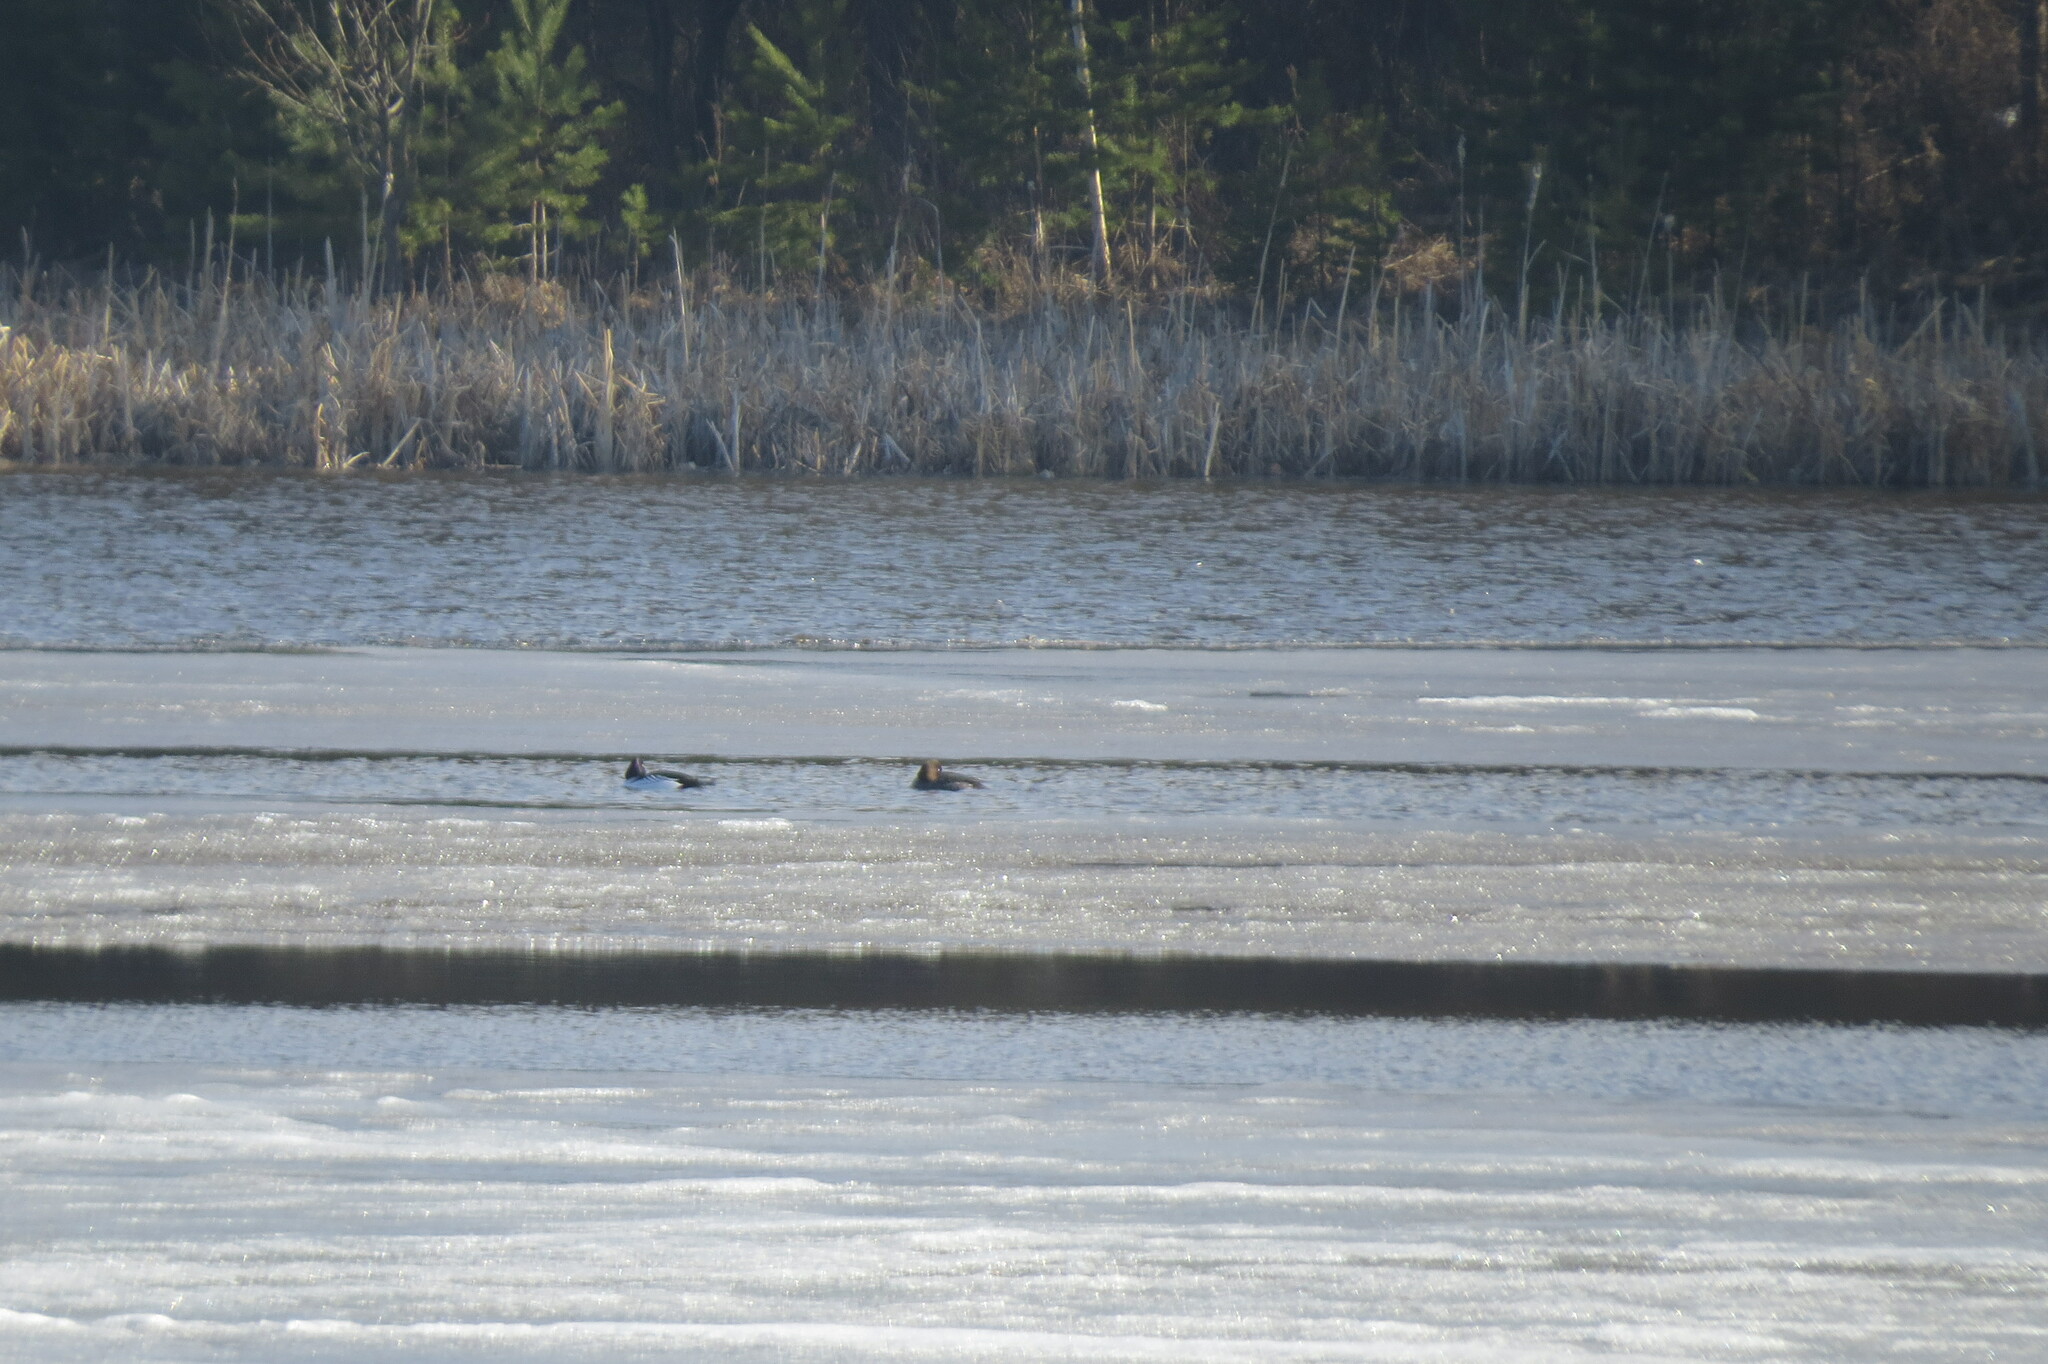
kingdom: Animalia
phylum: Chordata
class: Aves
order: Anseriformes
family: Anatidae
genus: Bucephala
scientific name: Bucephala clangula
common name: Common goldeneye
